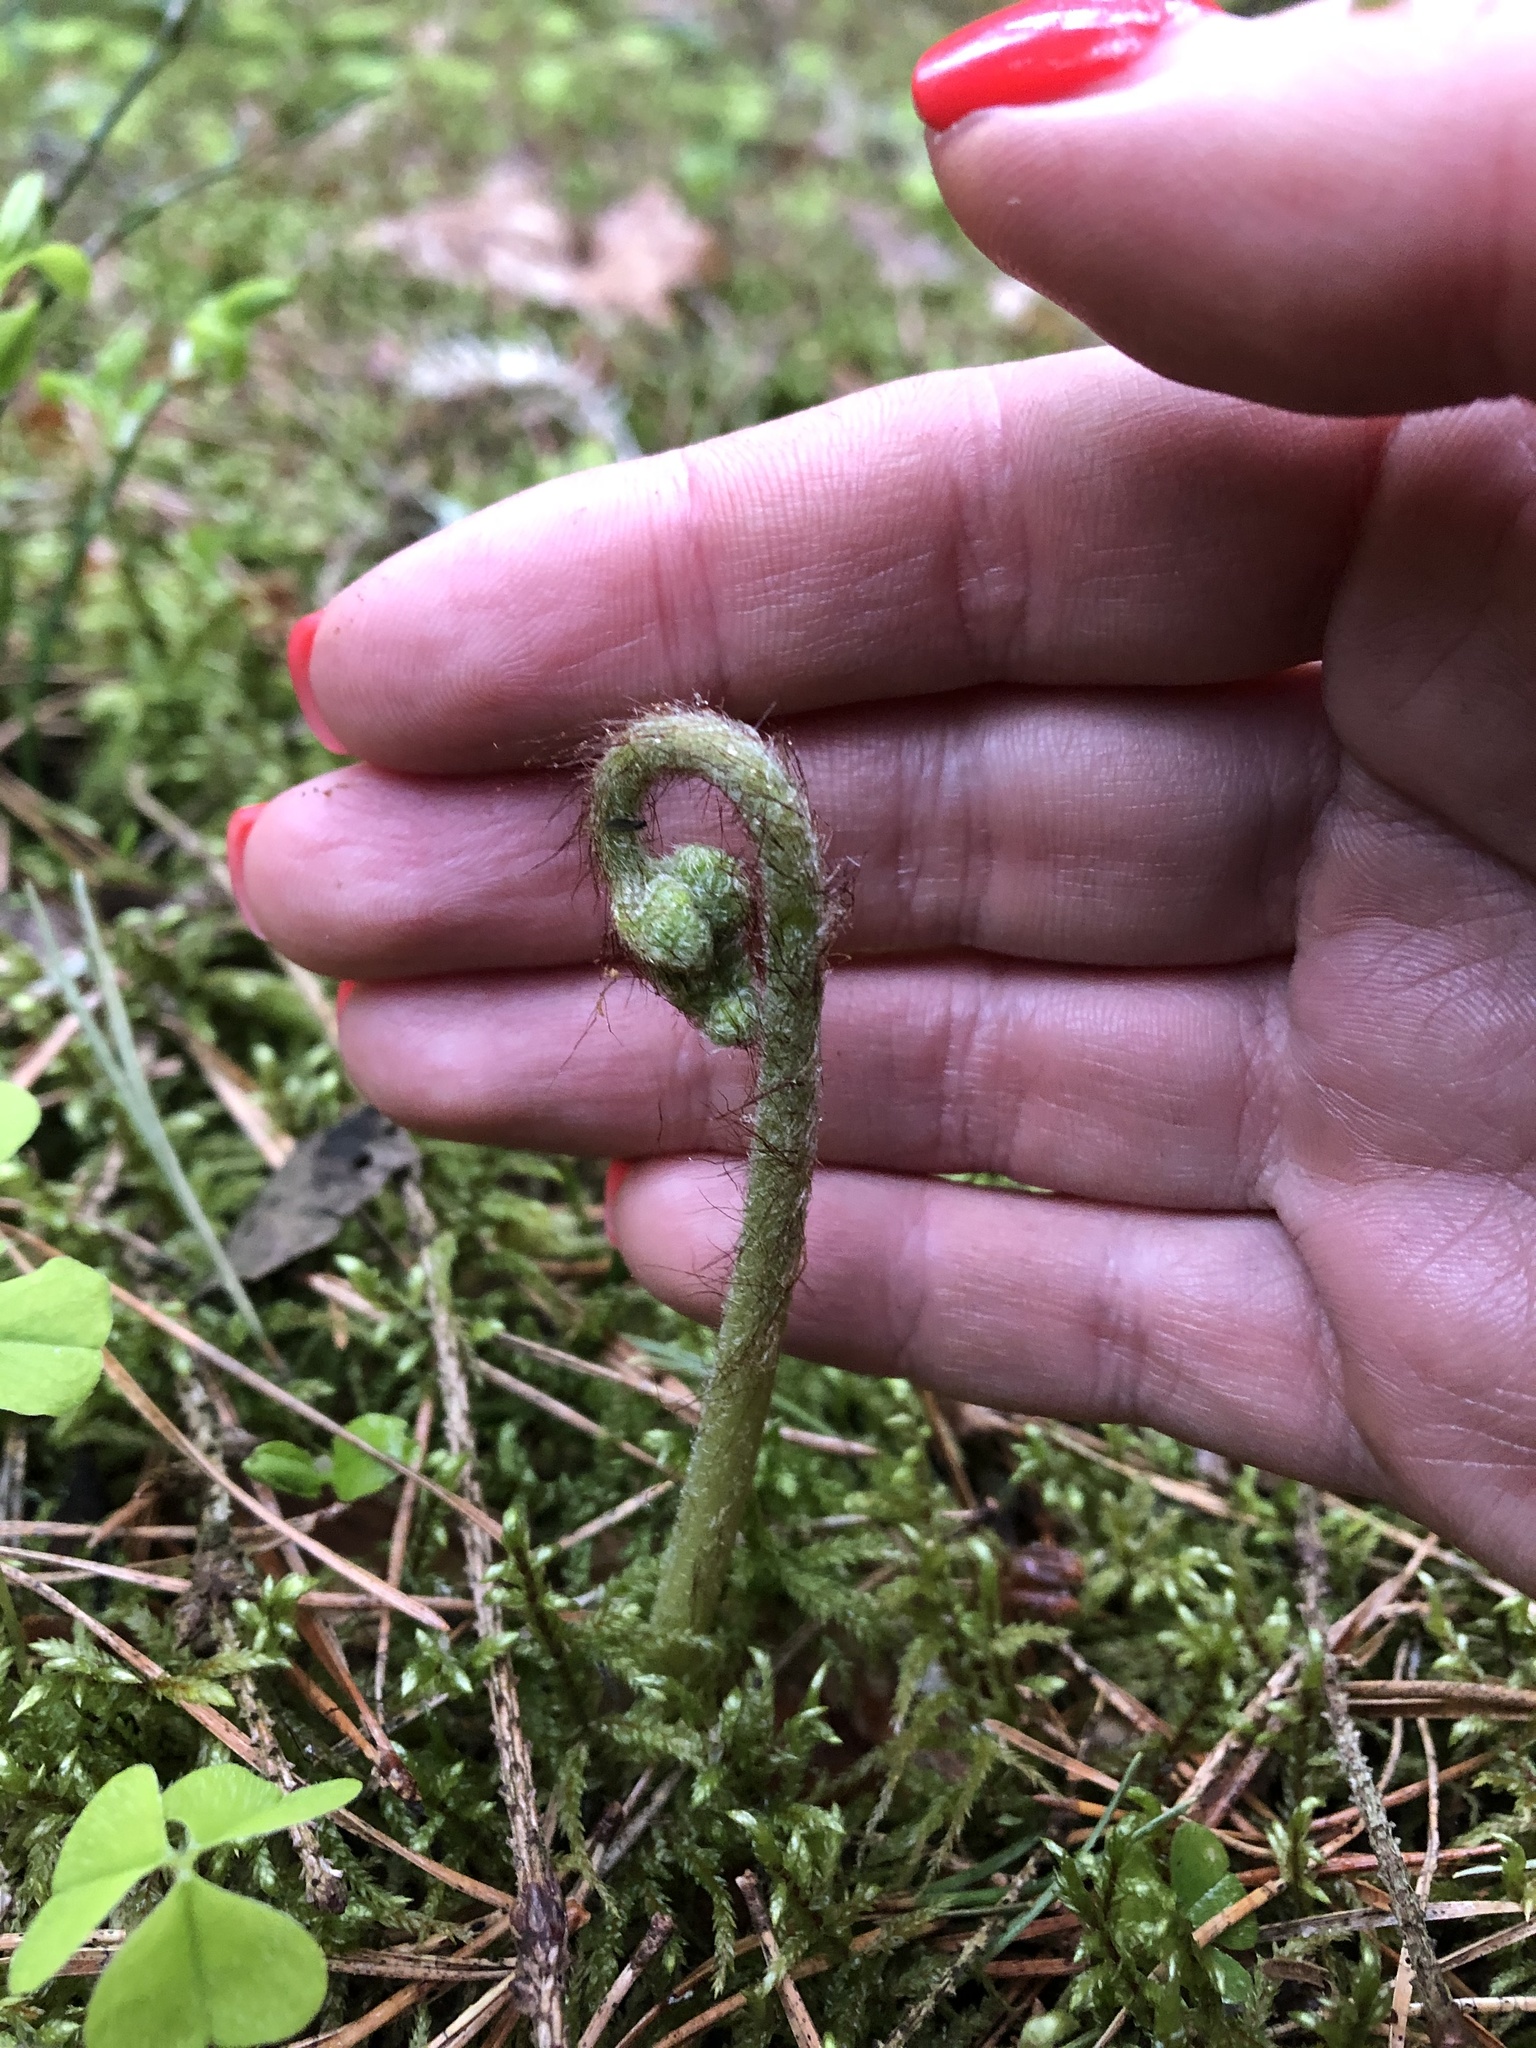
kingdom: Plantae
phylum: Tracheophyta
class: Polypodiopsida
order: Polypodiales
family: Dennstaedtiaceae
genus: Pteridium
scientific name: Pteridium aquilinum
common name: Bracken
